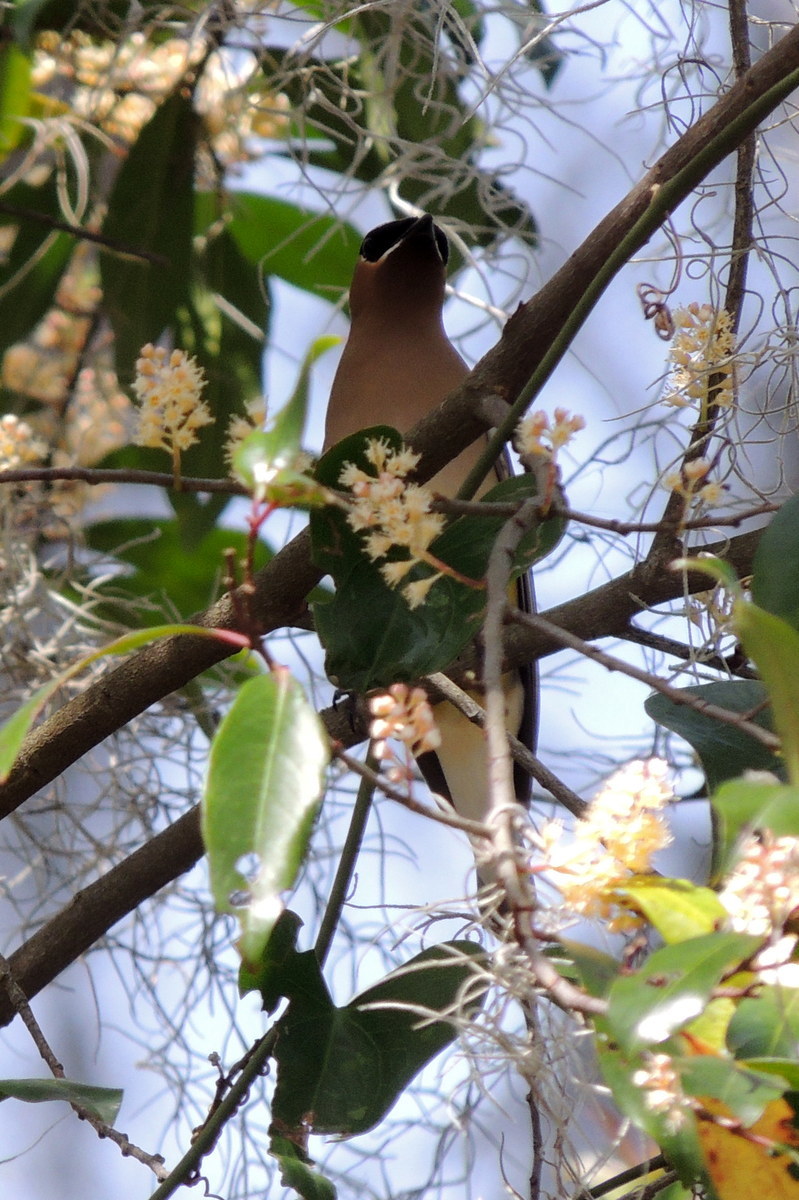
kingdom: Animalia
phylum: Chordata
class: Aves
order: Passeriformes
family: Bombycillidae
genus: Bombycilla
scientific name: Bombycilla cedrorum
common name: Cedar waxwing
